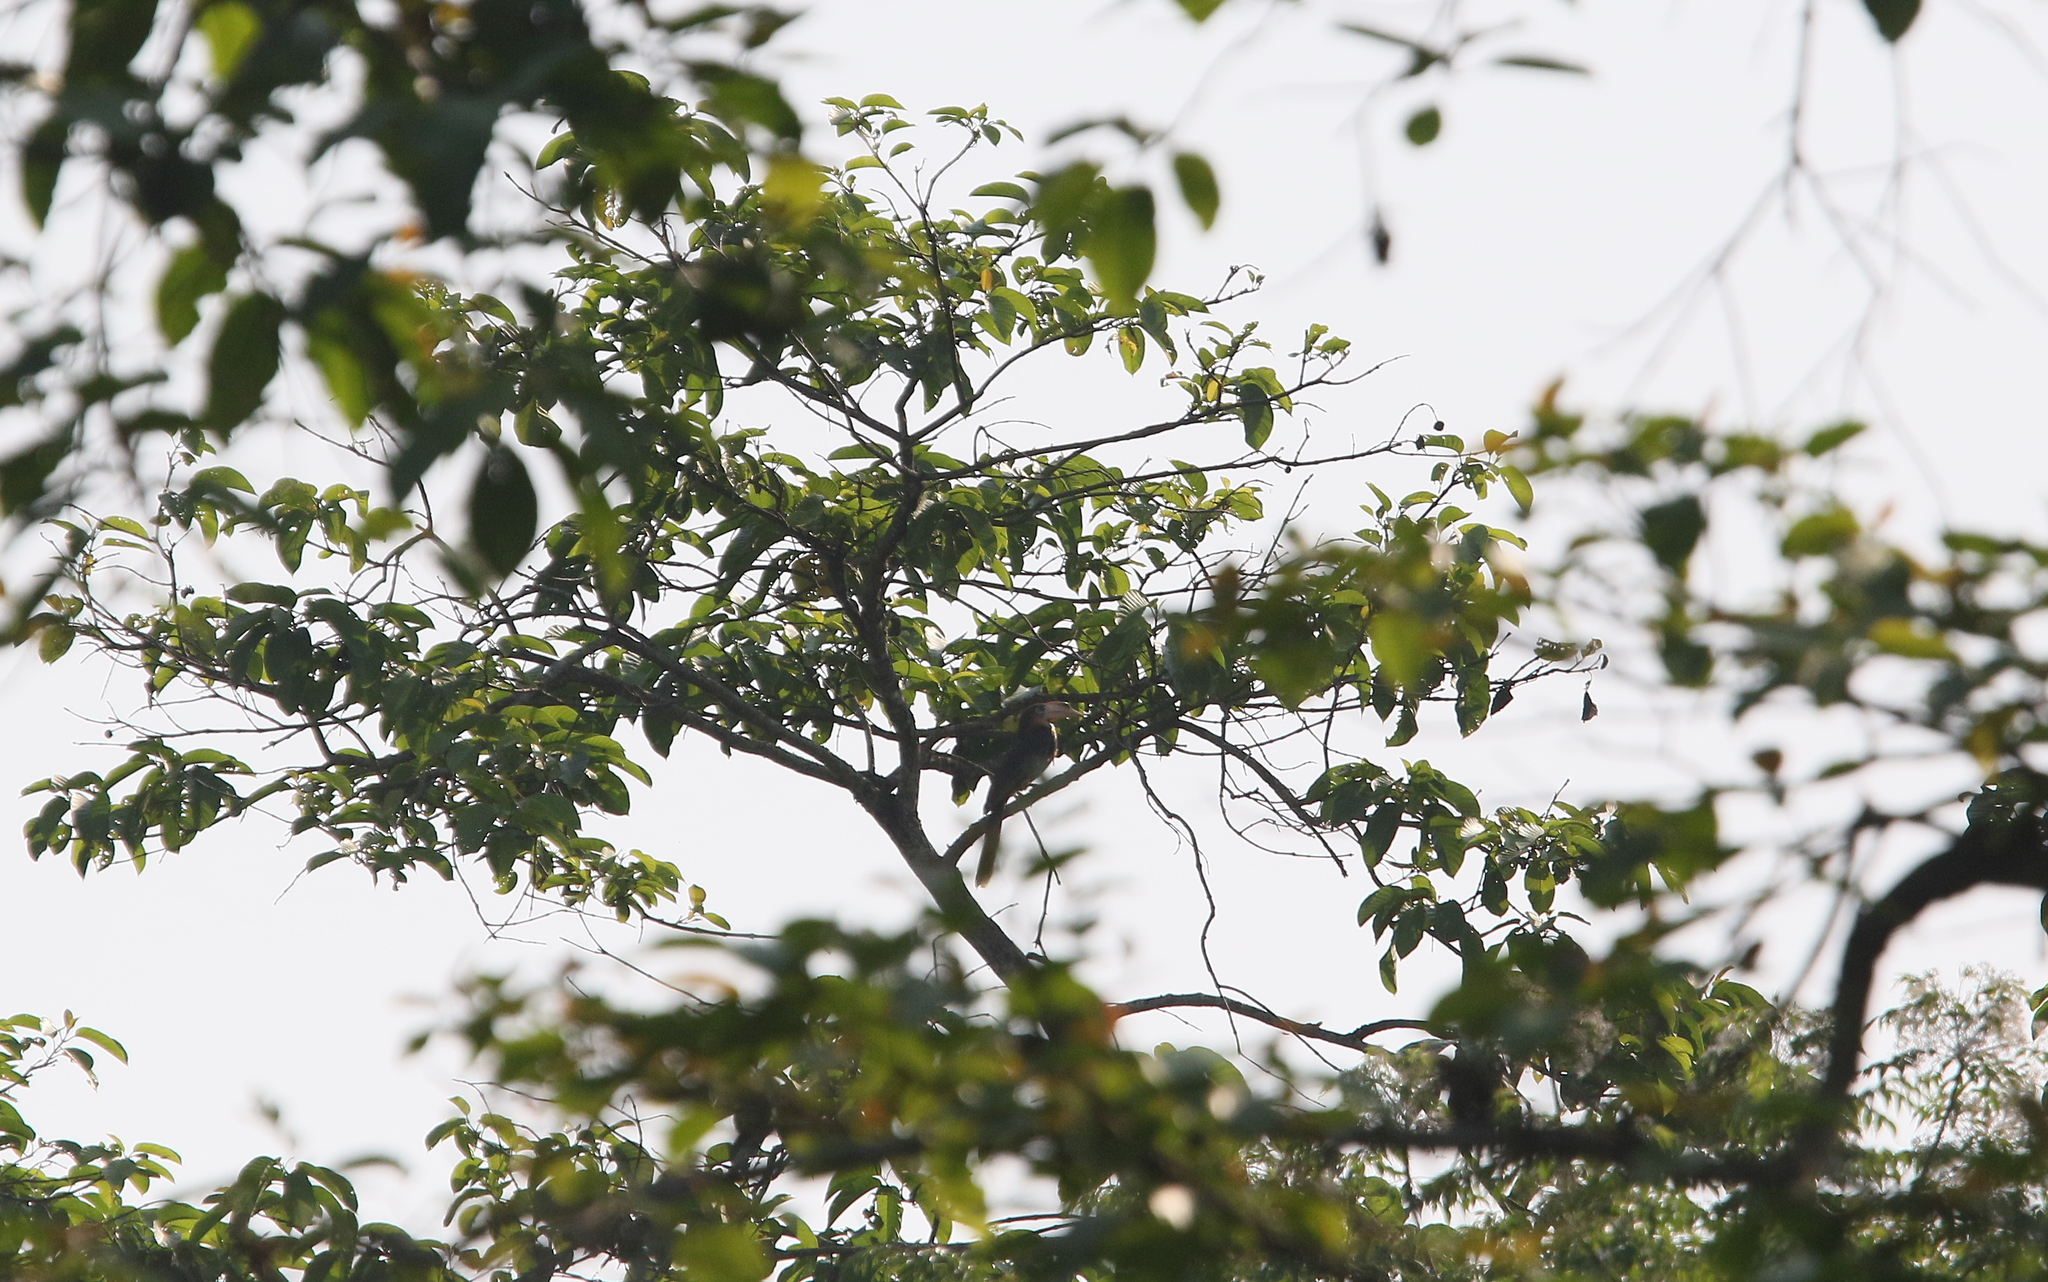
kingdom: Animalia
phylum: Chordata
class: Aves
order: Bucerotiformes
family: Bucerotidae
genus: Anorrhinus
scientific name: Anorrhinus tickelli
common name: Tickell's brown hornbill
